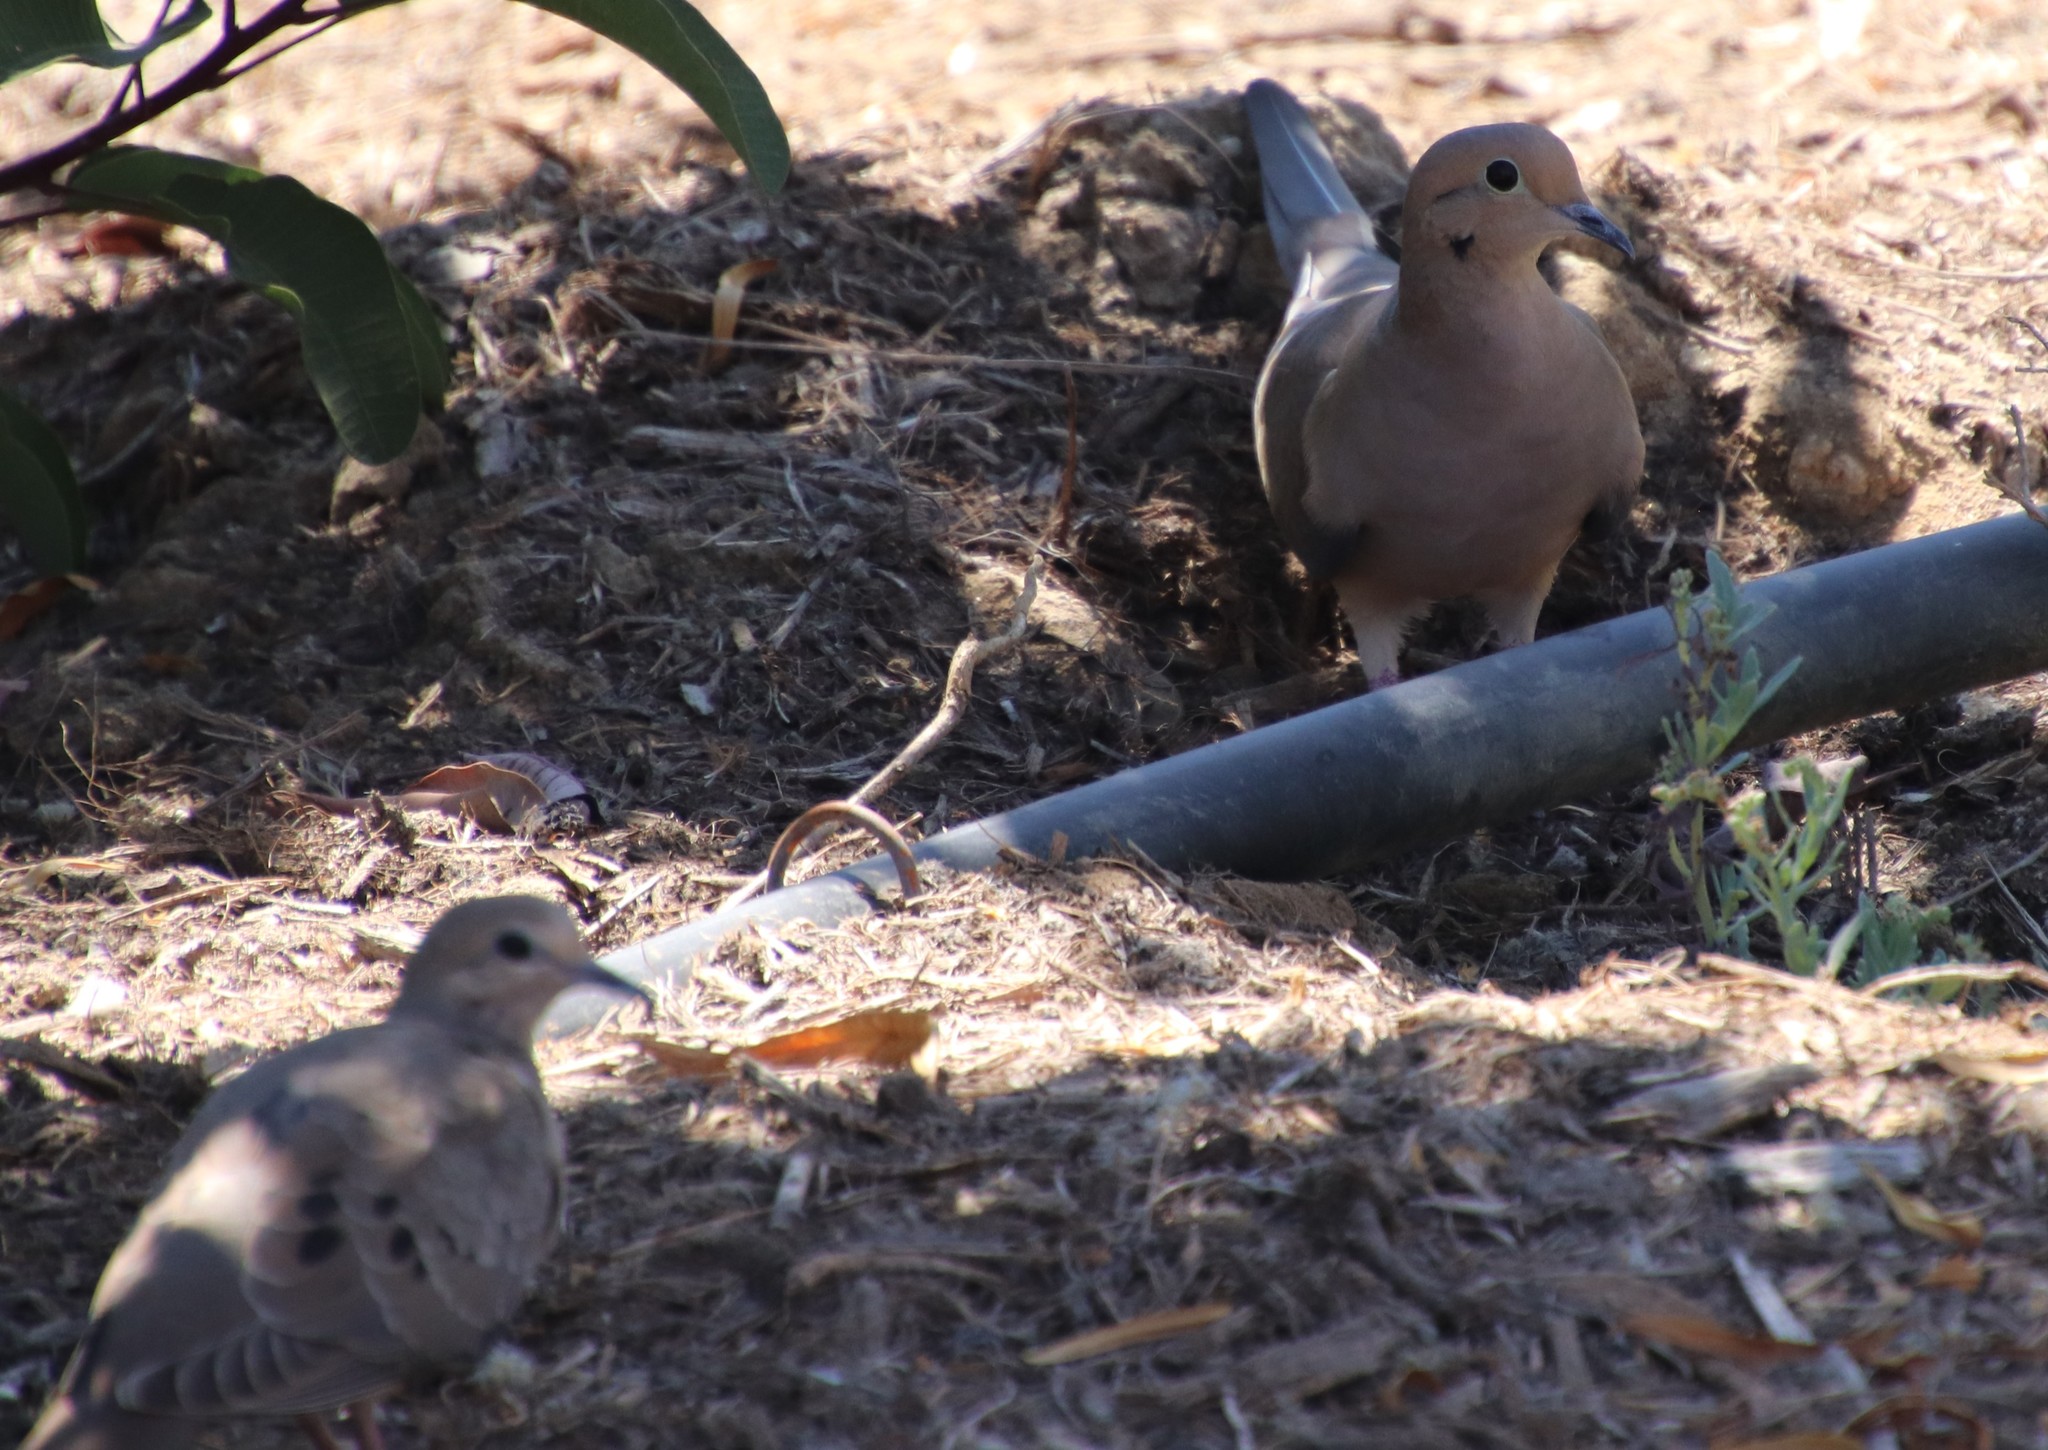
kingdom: Animalia
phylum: Chordata
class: Aves
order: Columbiformes
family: Columbidae
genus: Zenaida
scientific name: Zenaida macroura
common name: Mourning dove
